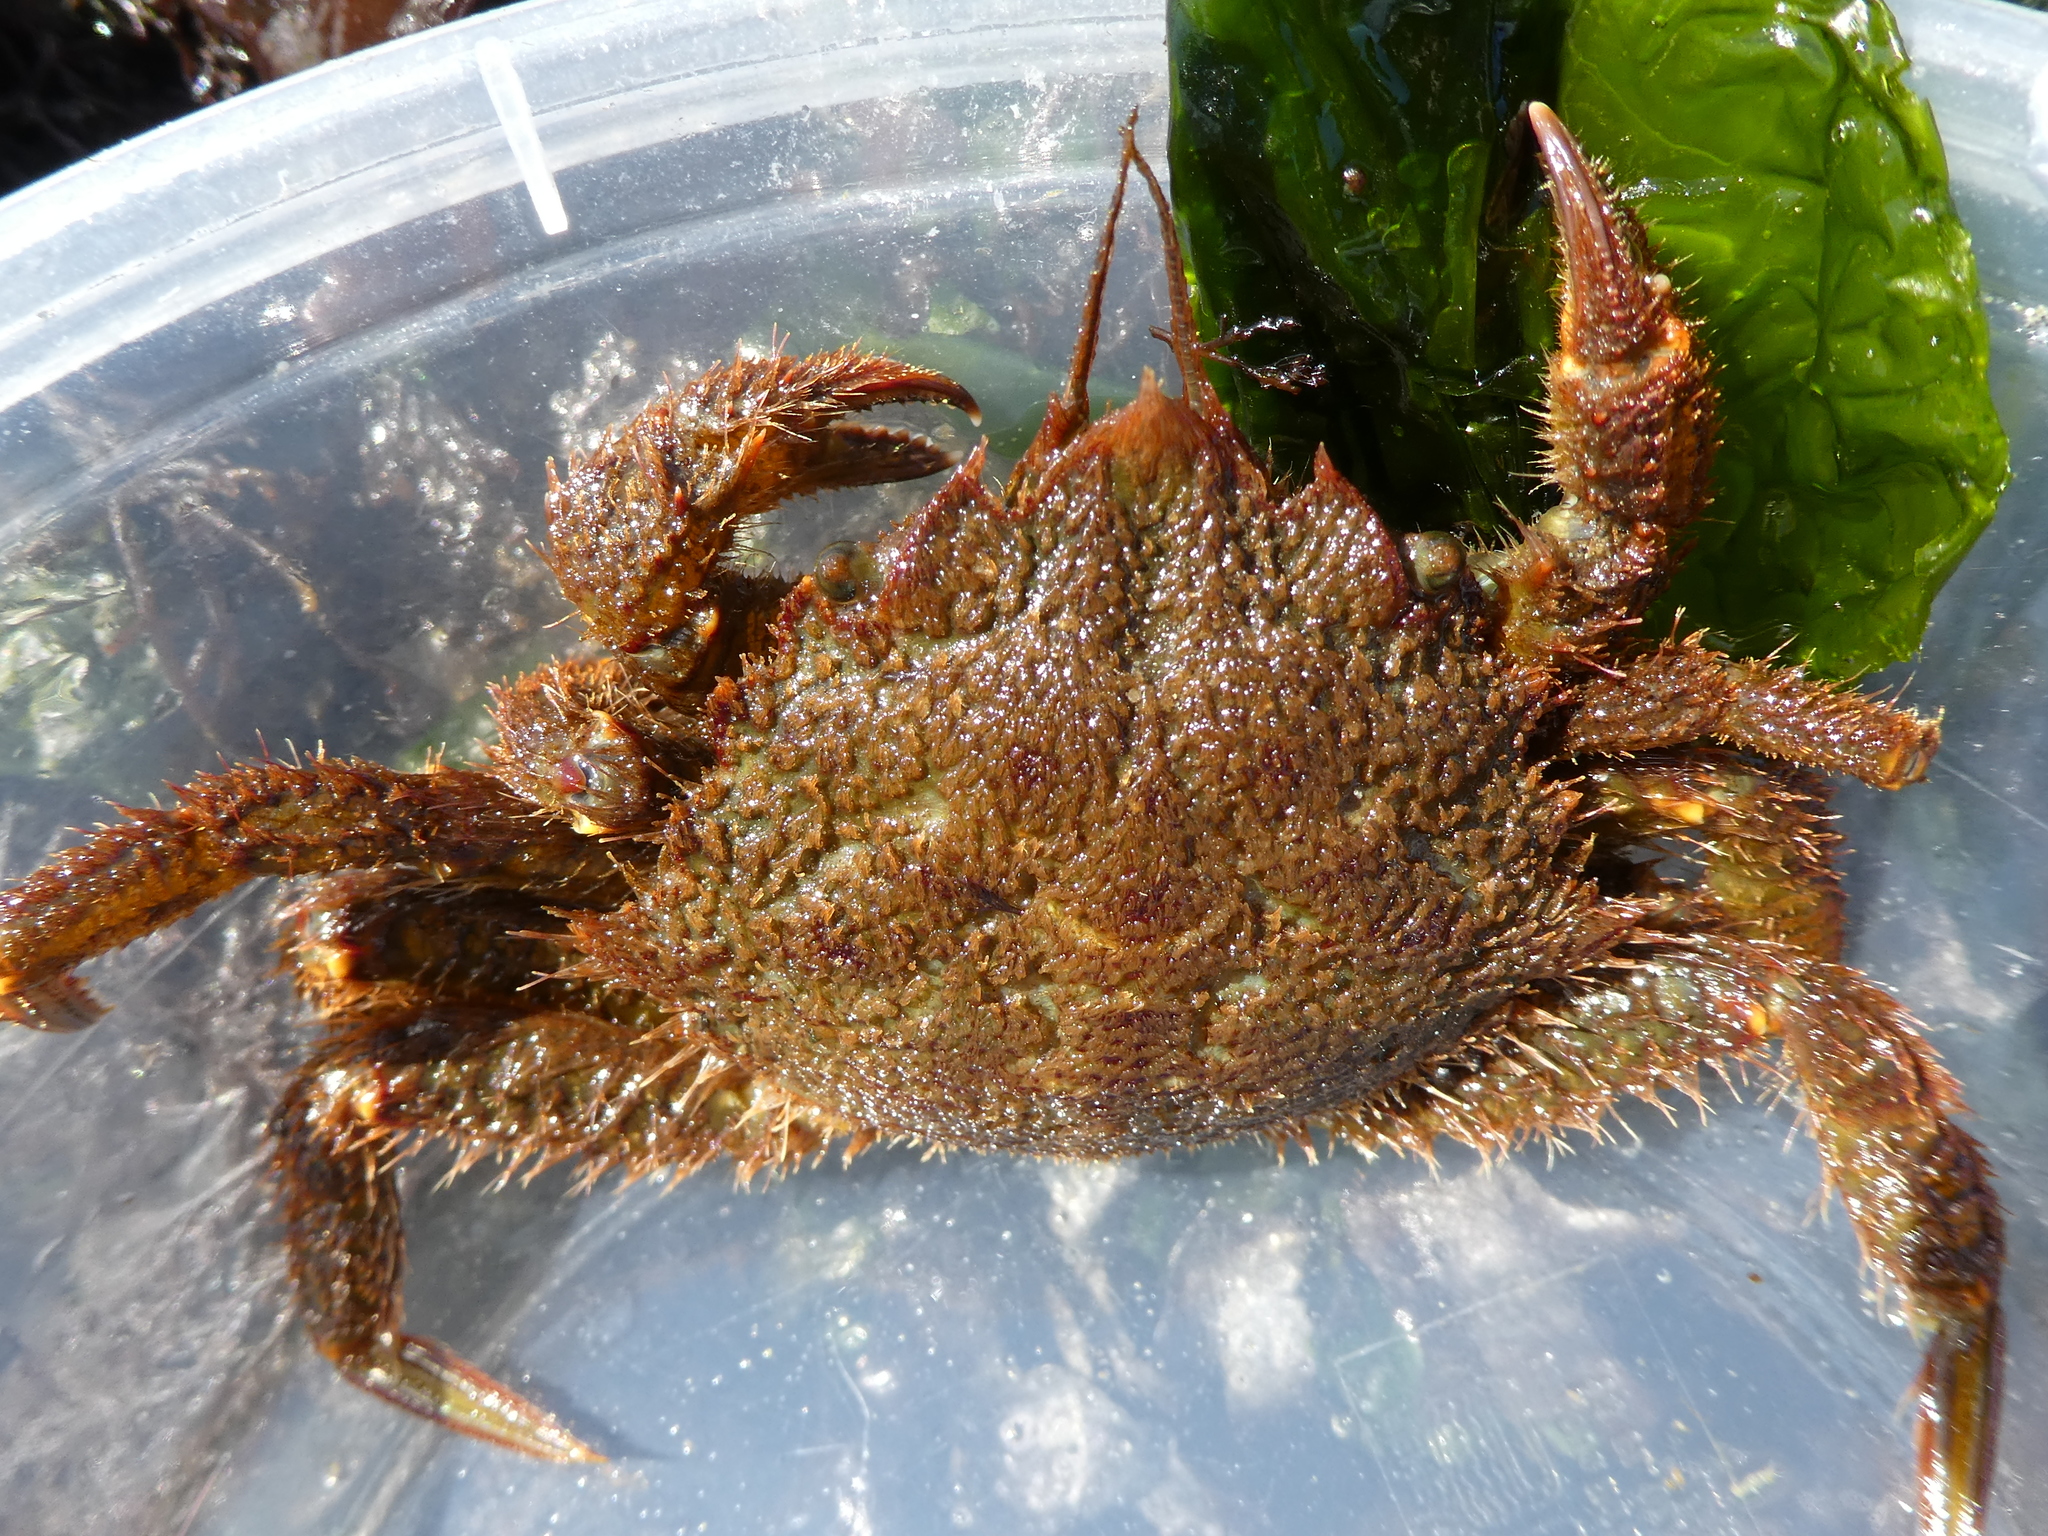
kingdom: Animalia
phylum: Arthropoda
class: Malacostraca
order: Decapoda
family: Cheiragonidae
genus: Telmessus
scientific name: Telmessus cheiragonus
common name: Helmet crab
